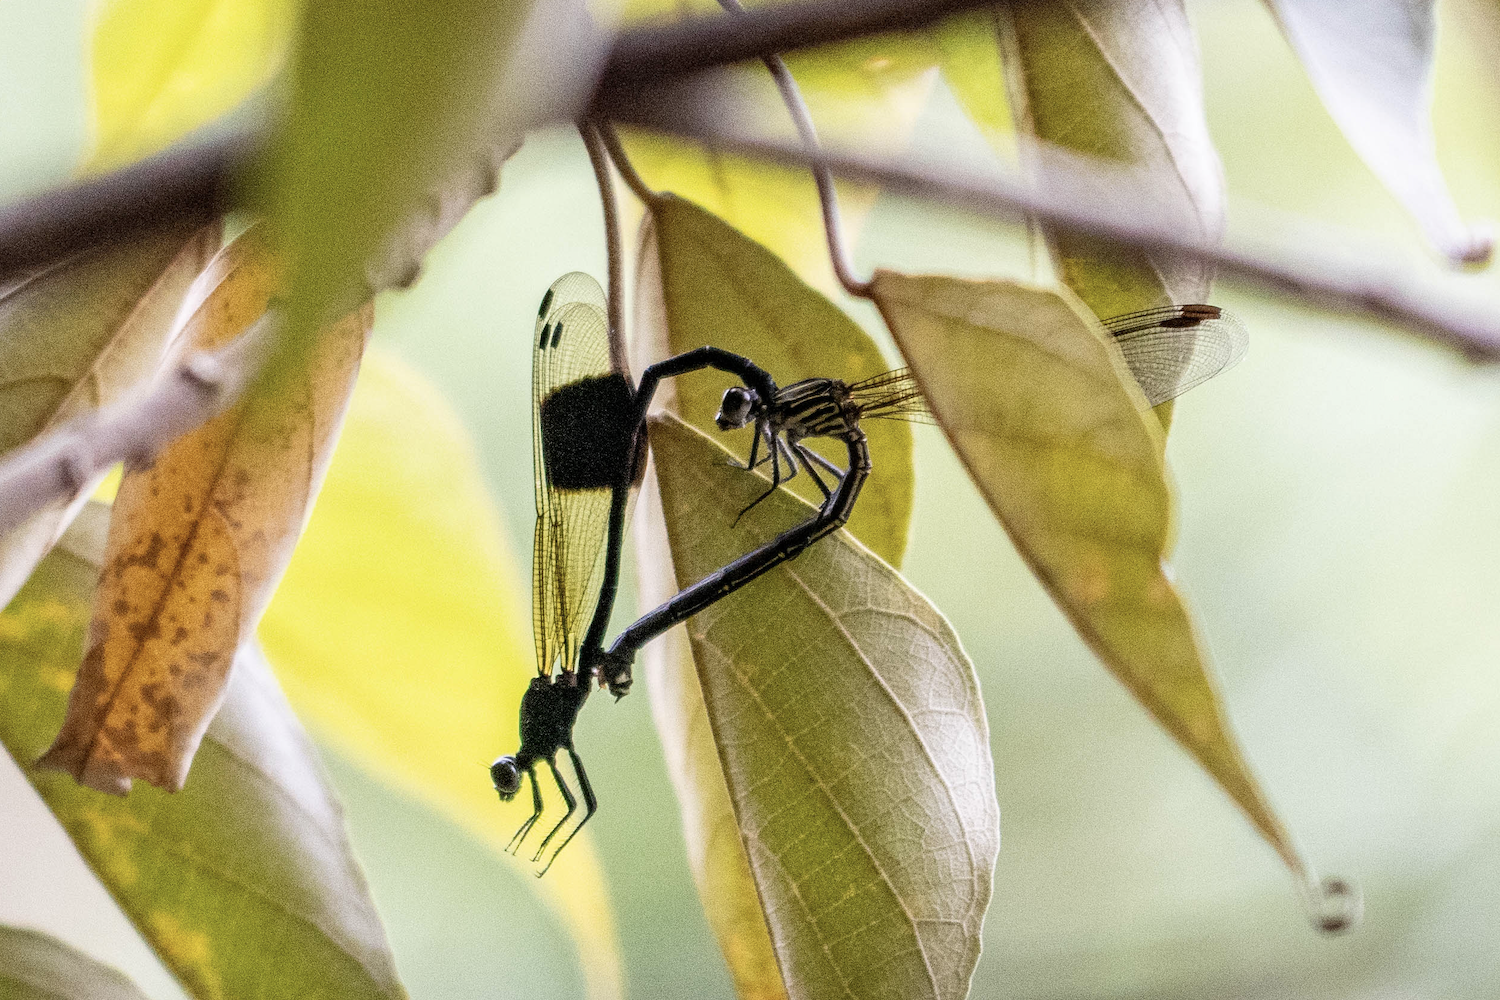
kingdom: Animalia
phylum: Arthropoda
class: Insecta
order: Odonata
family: Euphaeidae
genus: Euphaea
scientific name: Euphaea decorata
